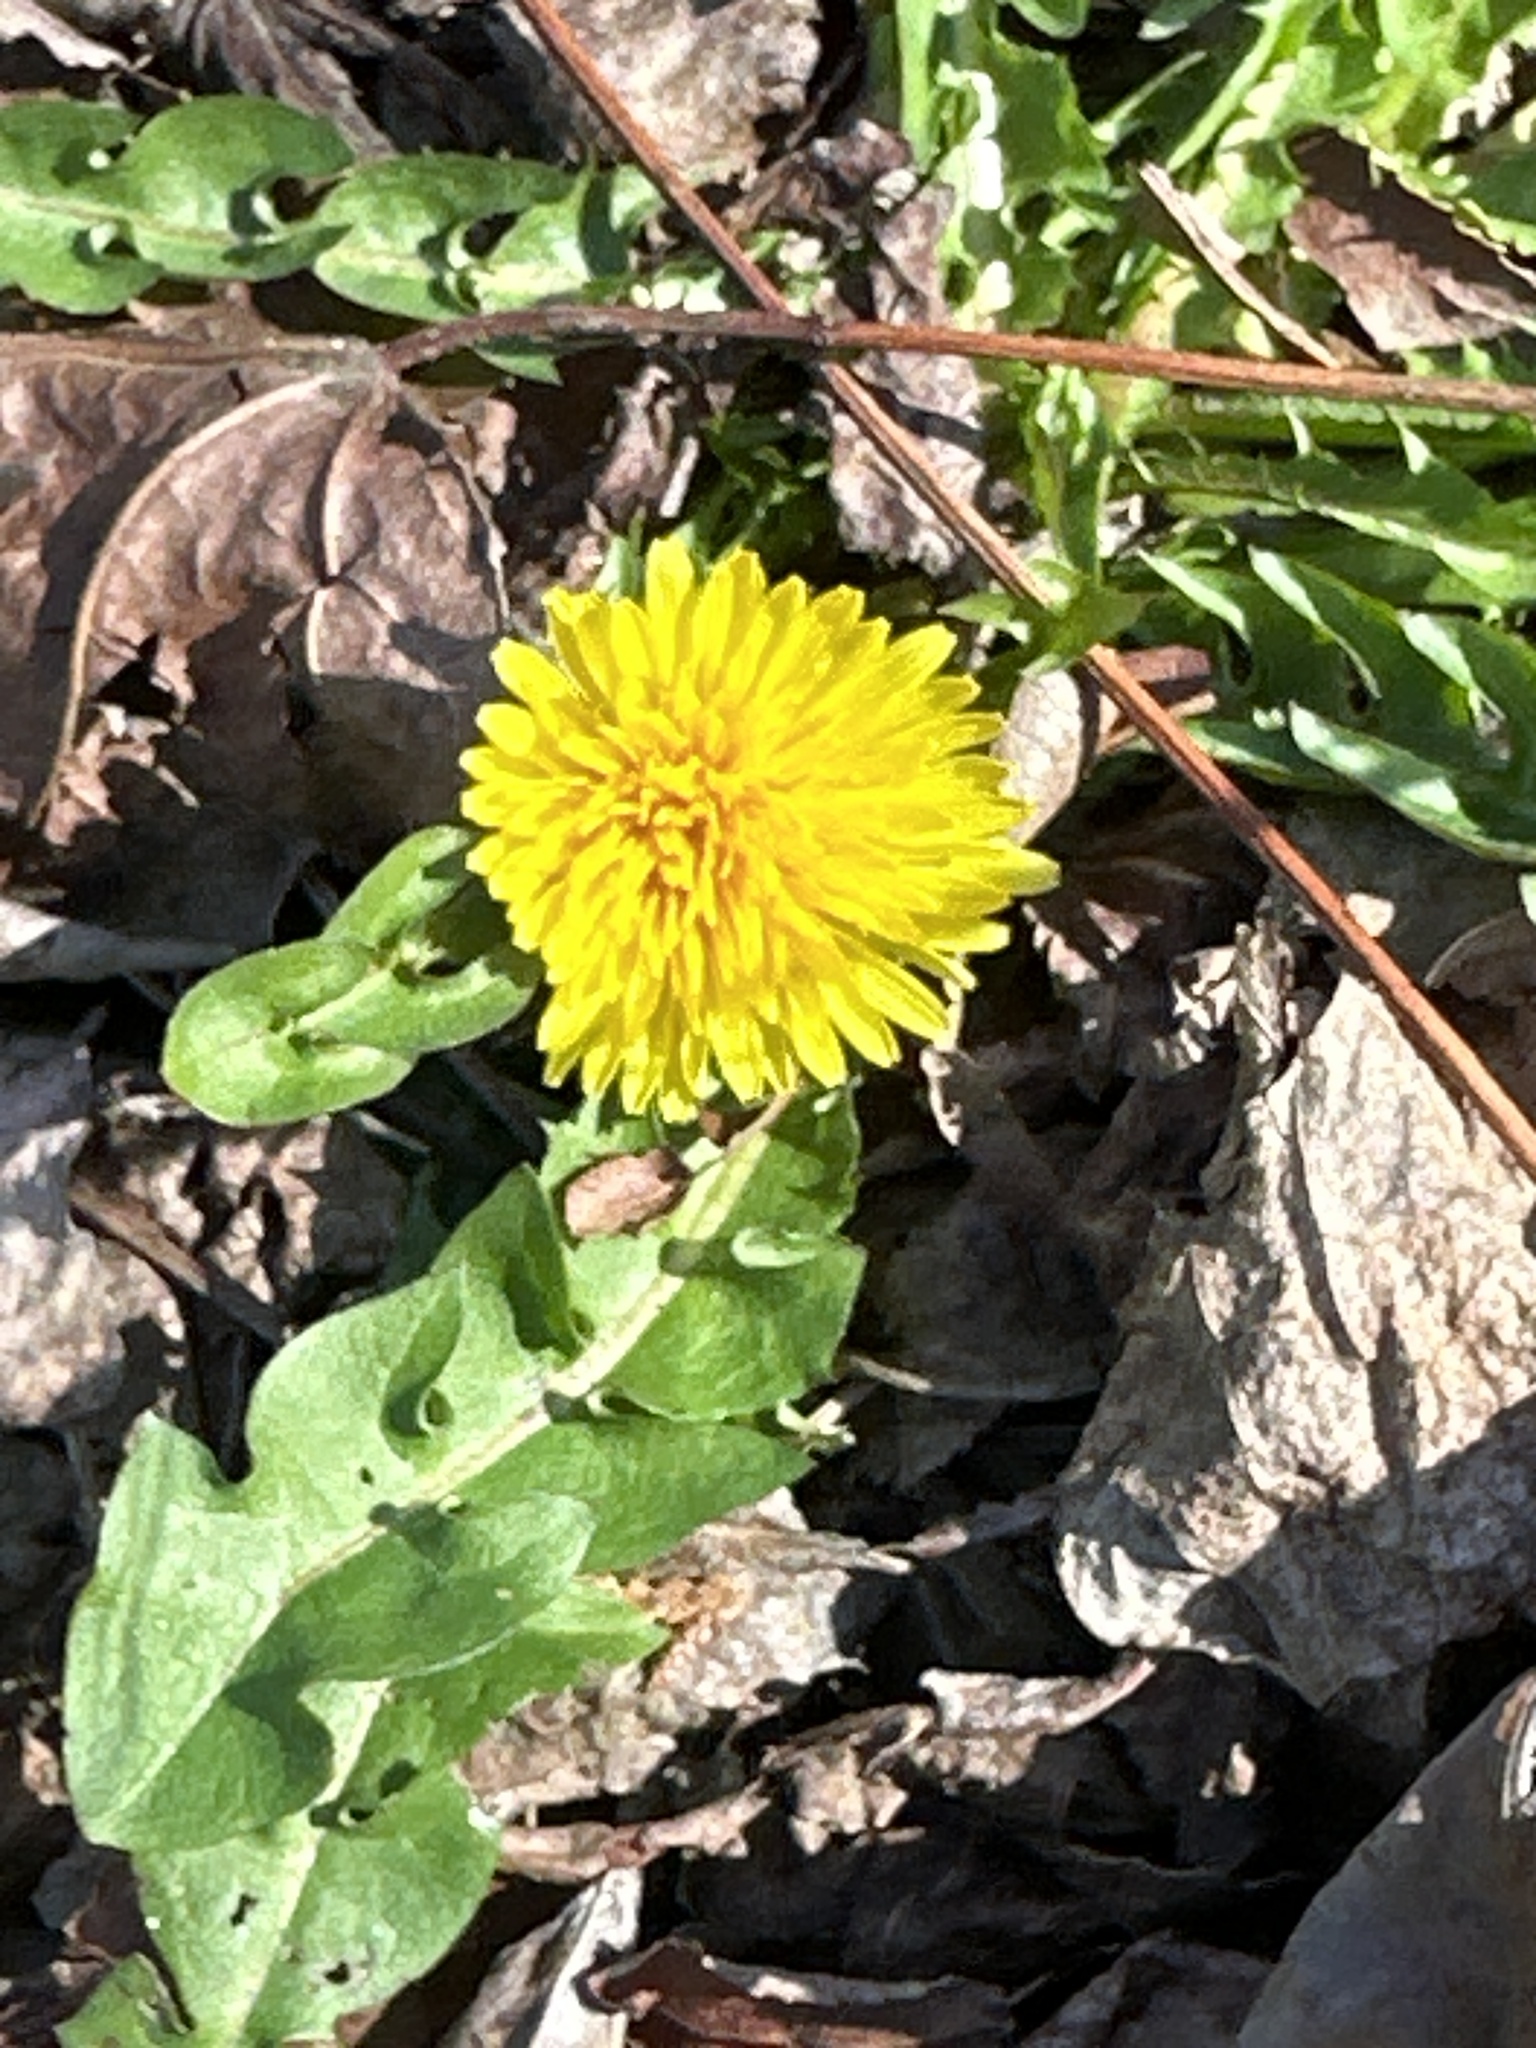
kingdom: Plantae
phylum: Tracheophyta
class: Magnoliopsida
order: Asterales
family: Asteraceae
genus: Taraxacum
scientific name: Taraxacum officinale
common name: Common dandelion
